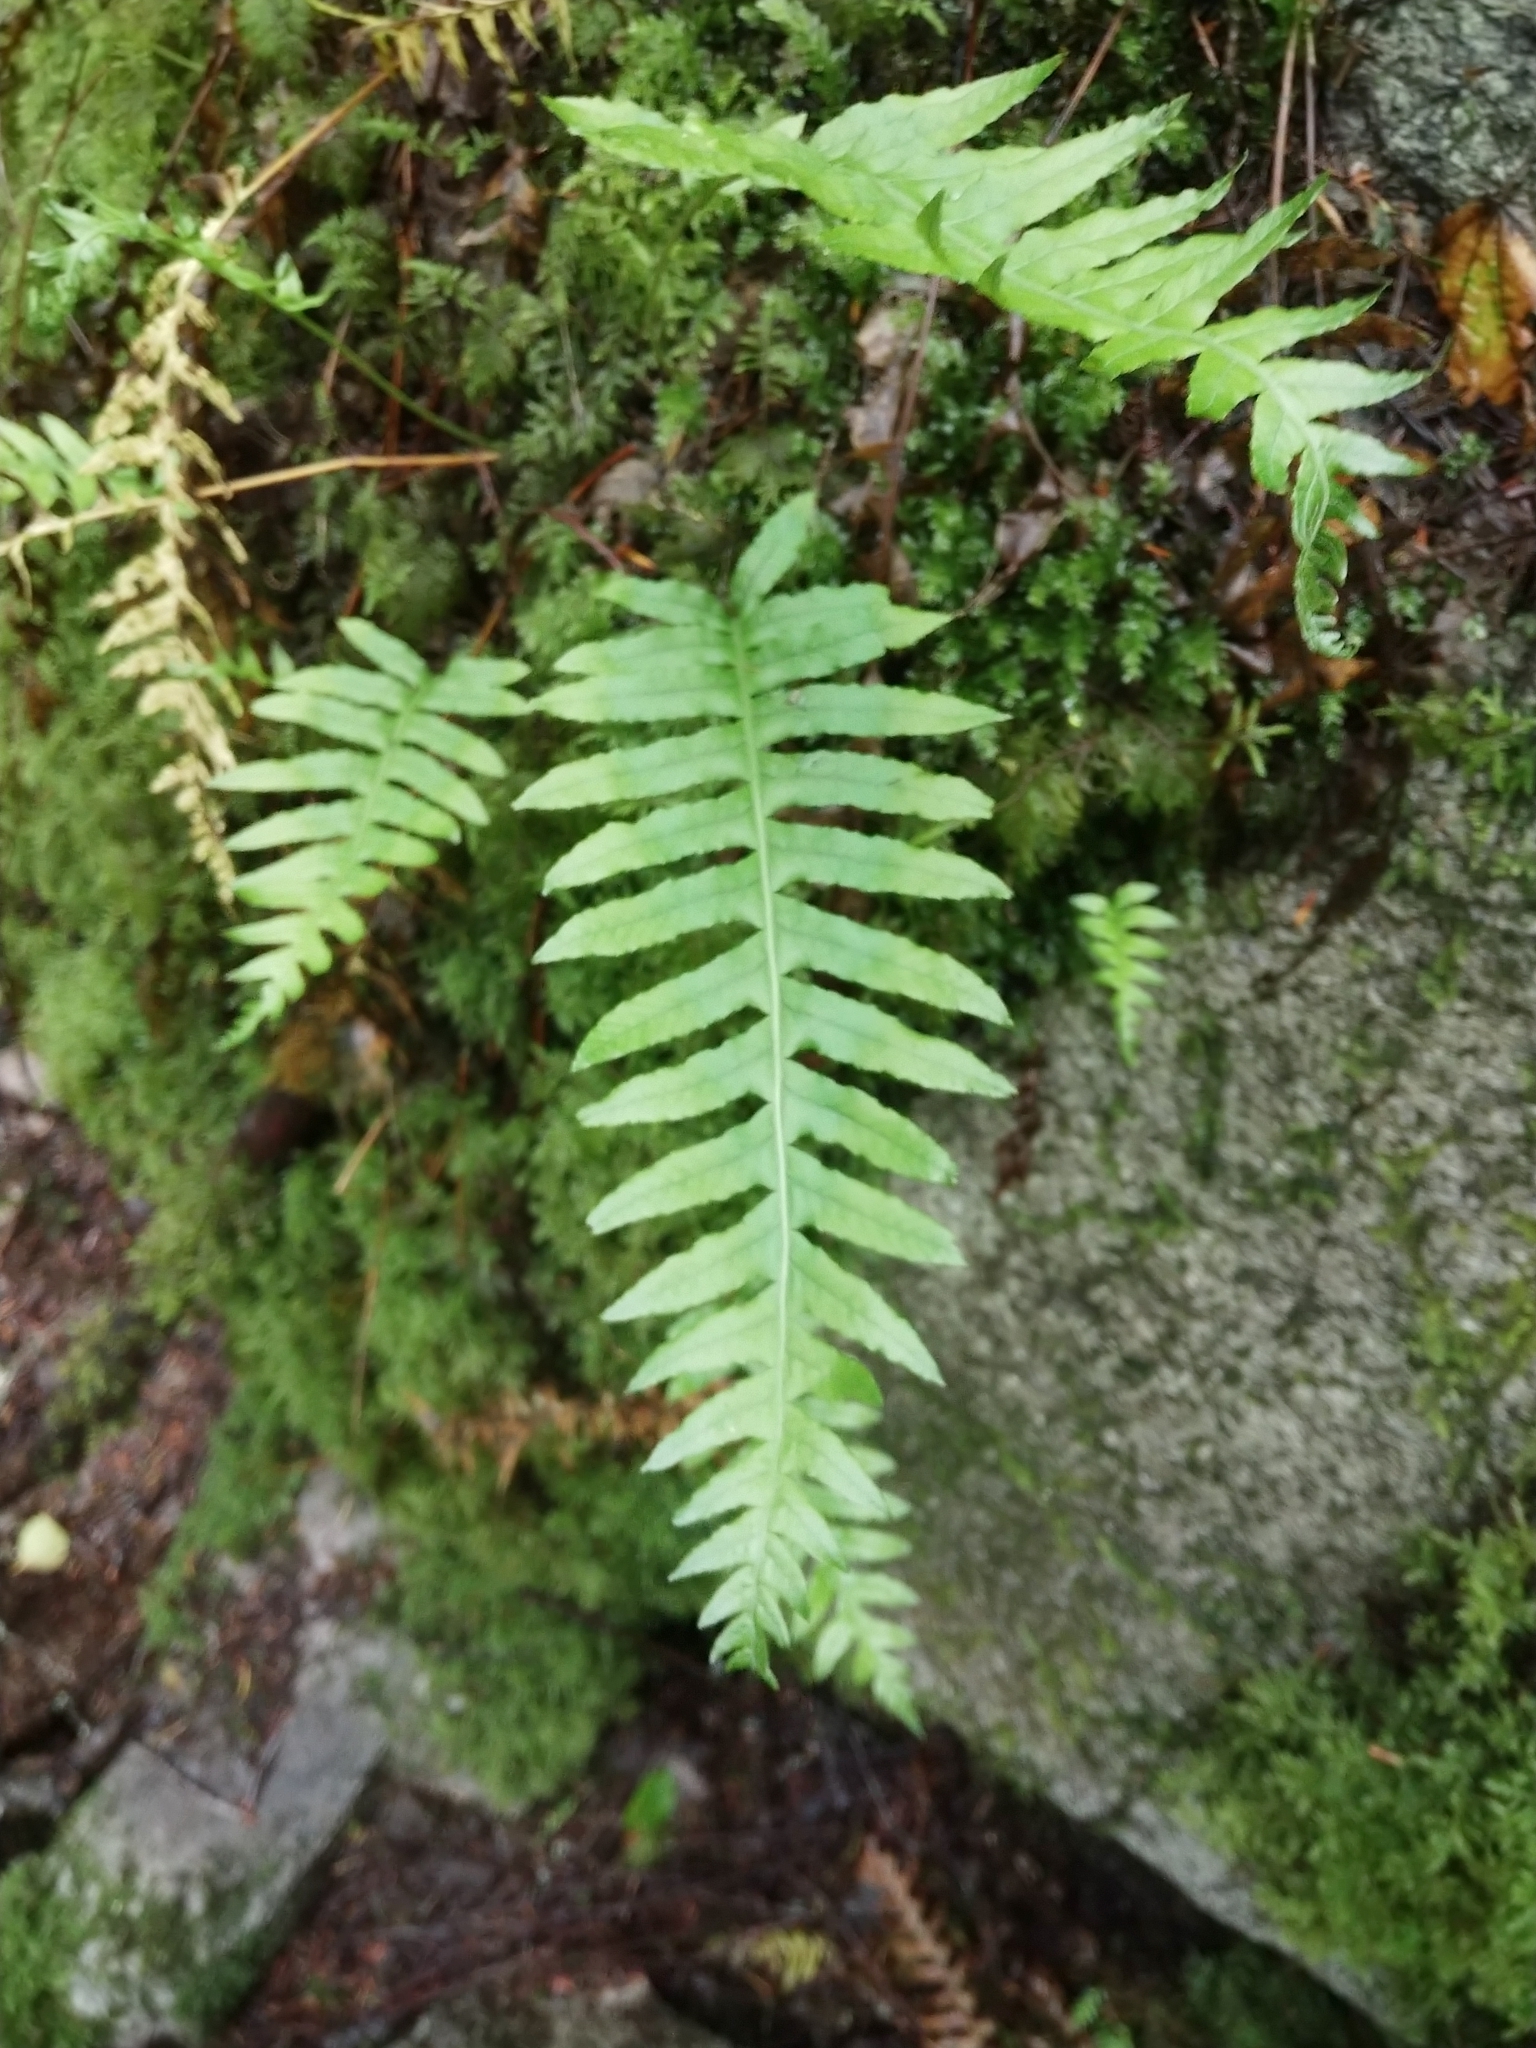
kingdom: Plantae
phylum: Tracheophyta
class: Polypodiopsida
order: Polypodiales
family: Polypodiaceae
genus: Polypodium
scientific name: Polypodium glycyrrhiza
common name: Licorice fern
